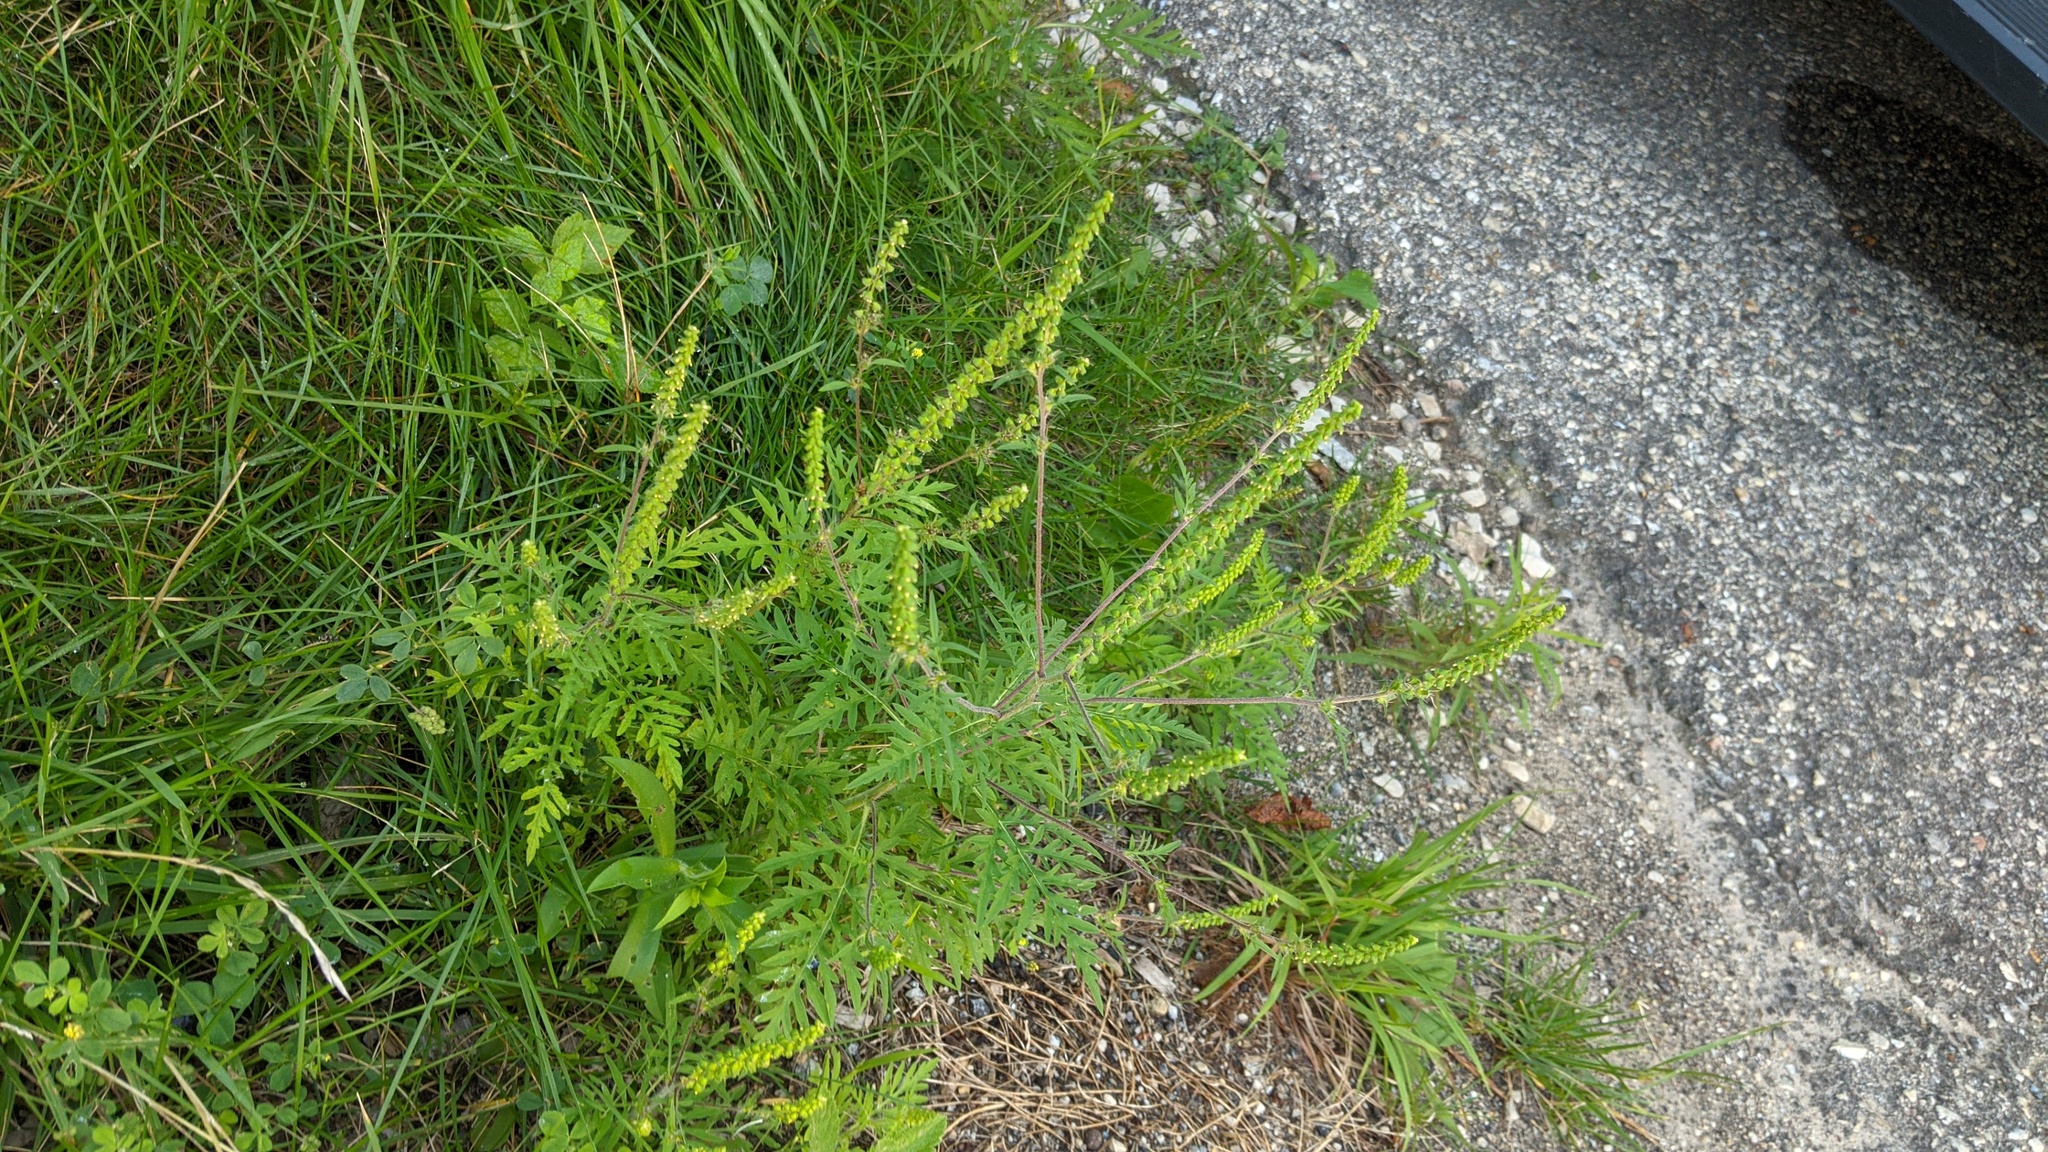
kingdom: Plantae
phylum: Tracheophyta
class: Magnoliopsida
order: Asterales
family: Asteraceae
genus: Ambrosia
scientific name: Ambrosia artemisiifolia
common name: Annual ragweed
